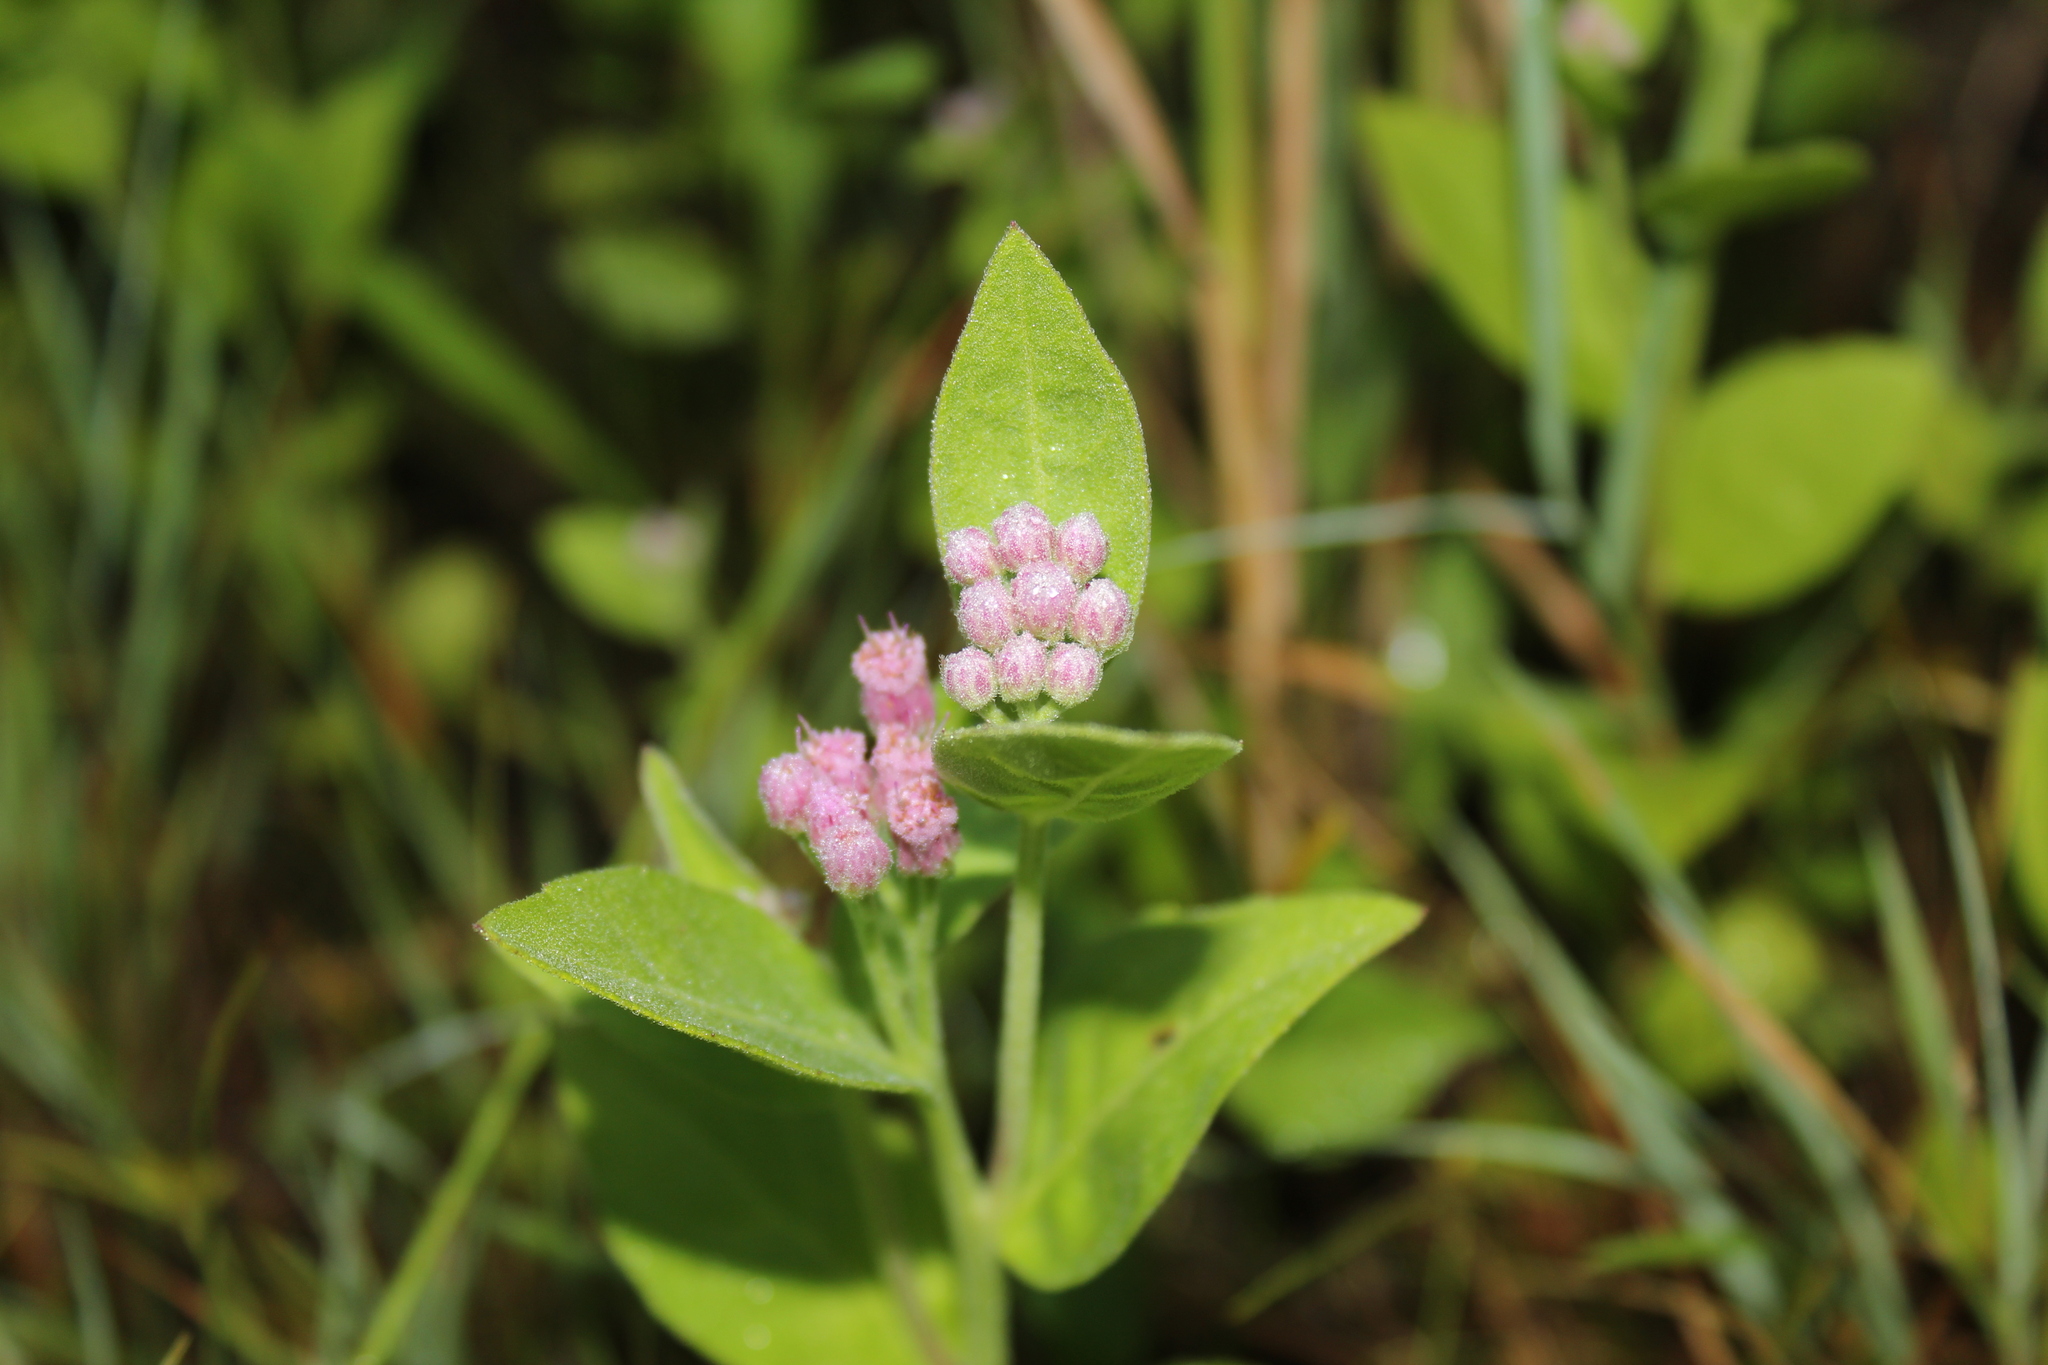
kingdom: Plantae
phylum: Tracheophyta
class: Magnoliopsida
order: Asterales
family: Asteraceae
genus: Pluchea
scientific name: Pluchea odorata
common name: Saltmarsh fleabane
